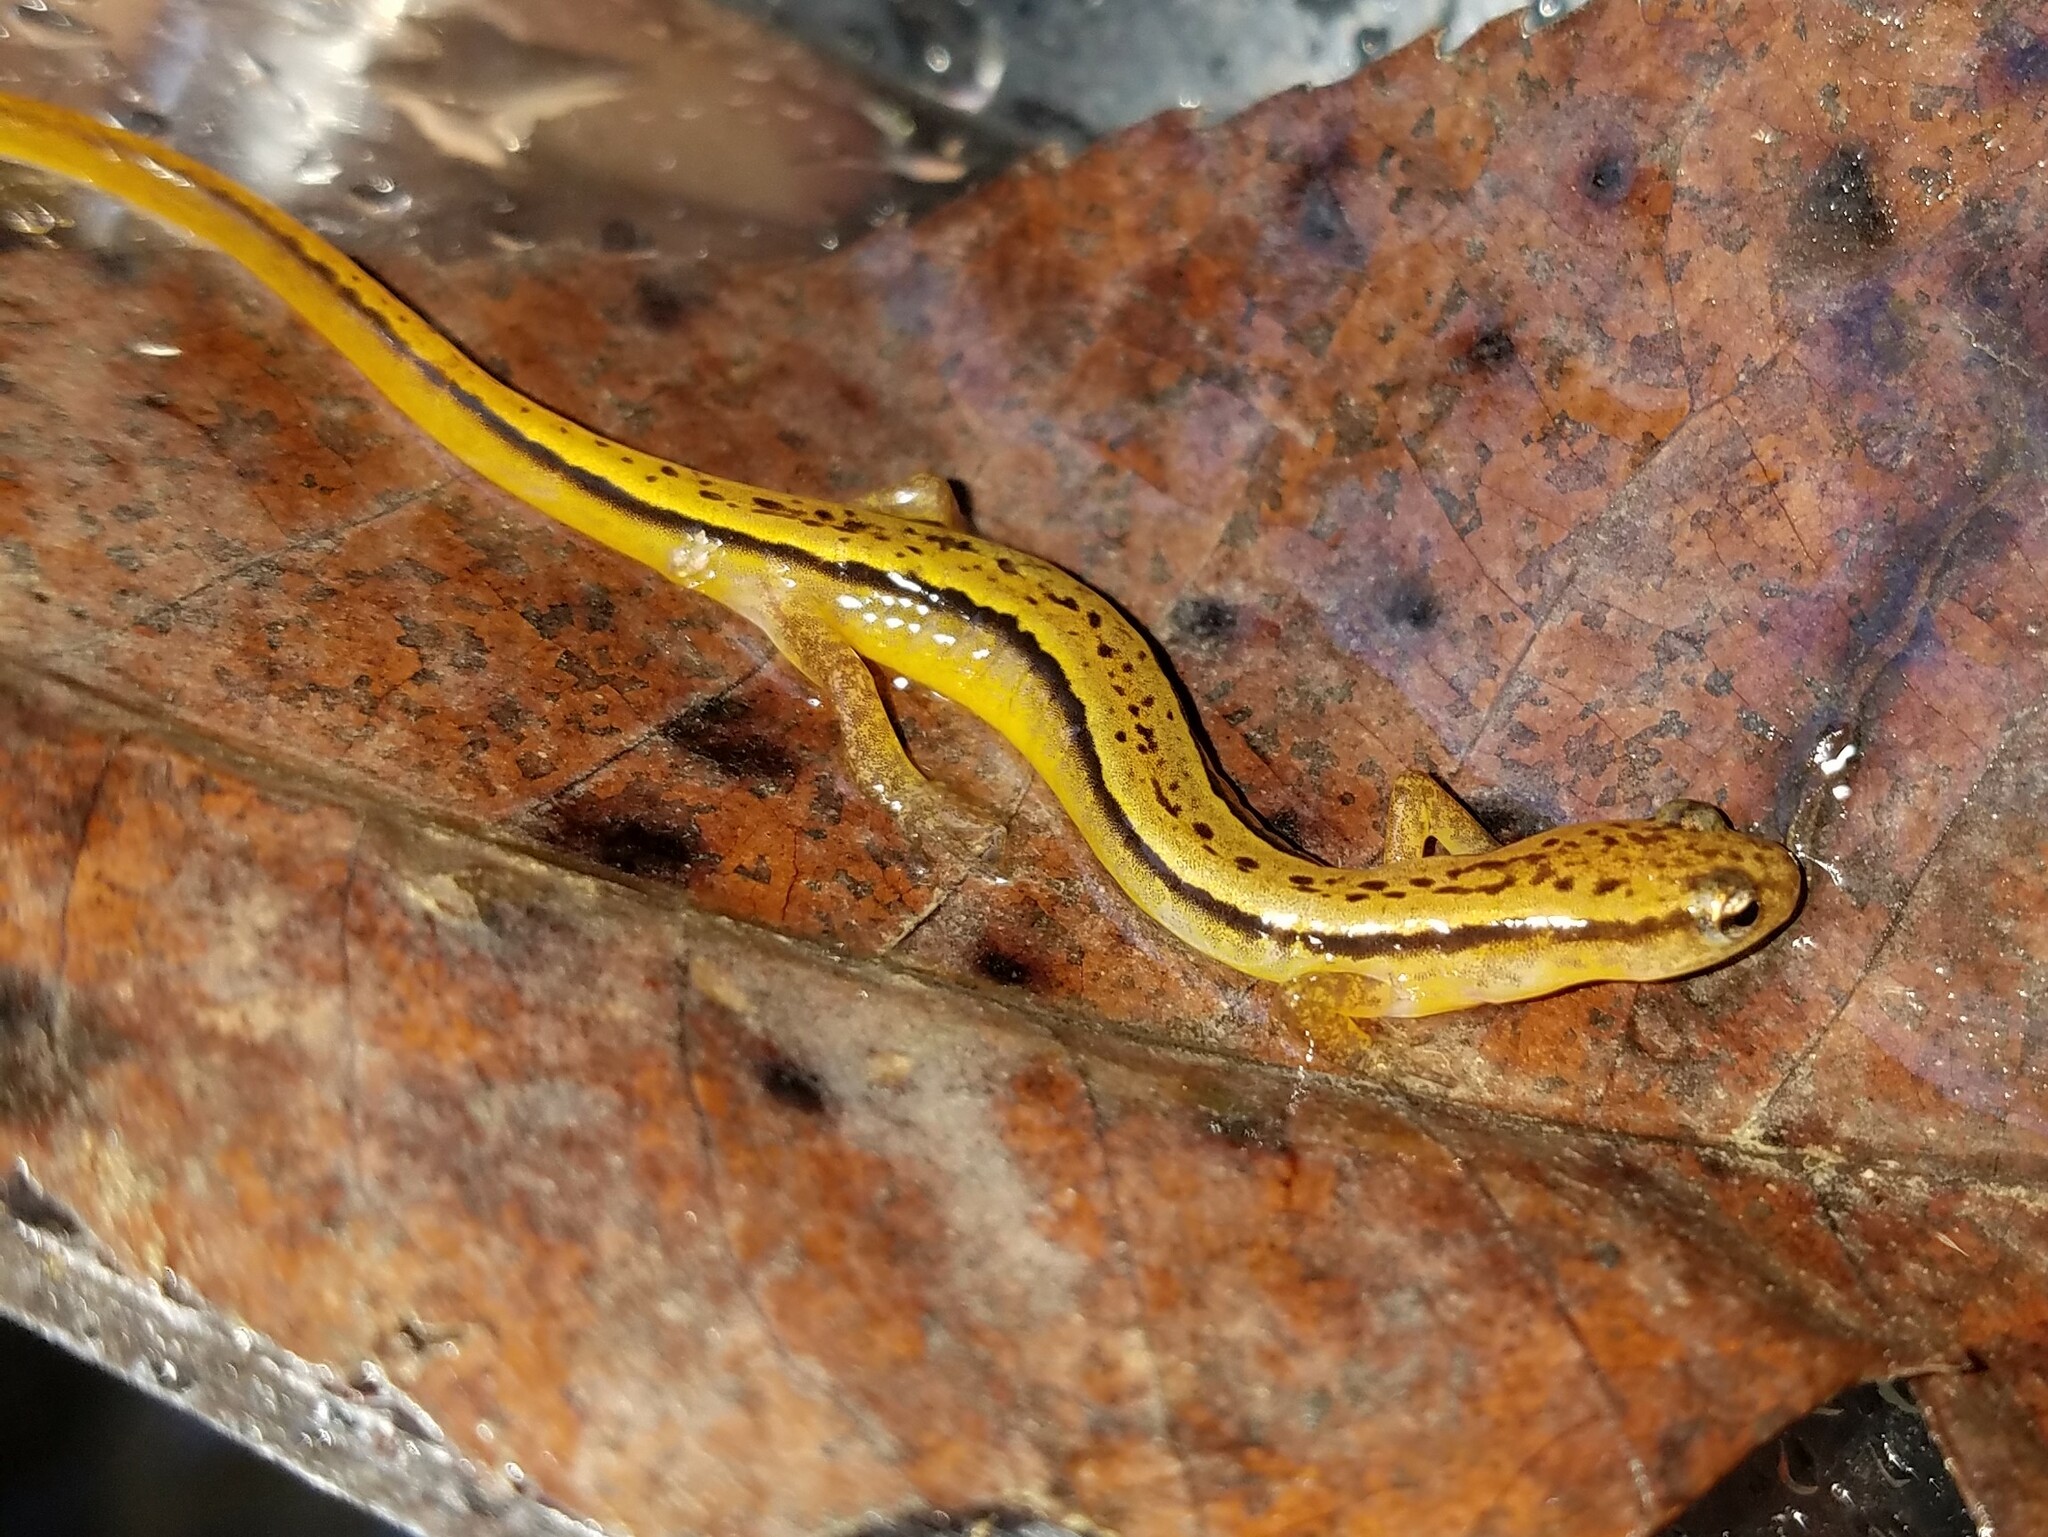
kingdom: Animalia
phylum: Chordata
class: Amphibia
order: Caudata
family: Plethodontidae
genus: Eurycea
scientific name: Eurycea wilderae
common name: Blue ridge two-lined salamander
